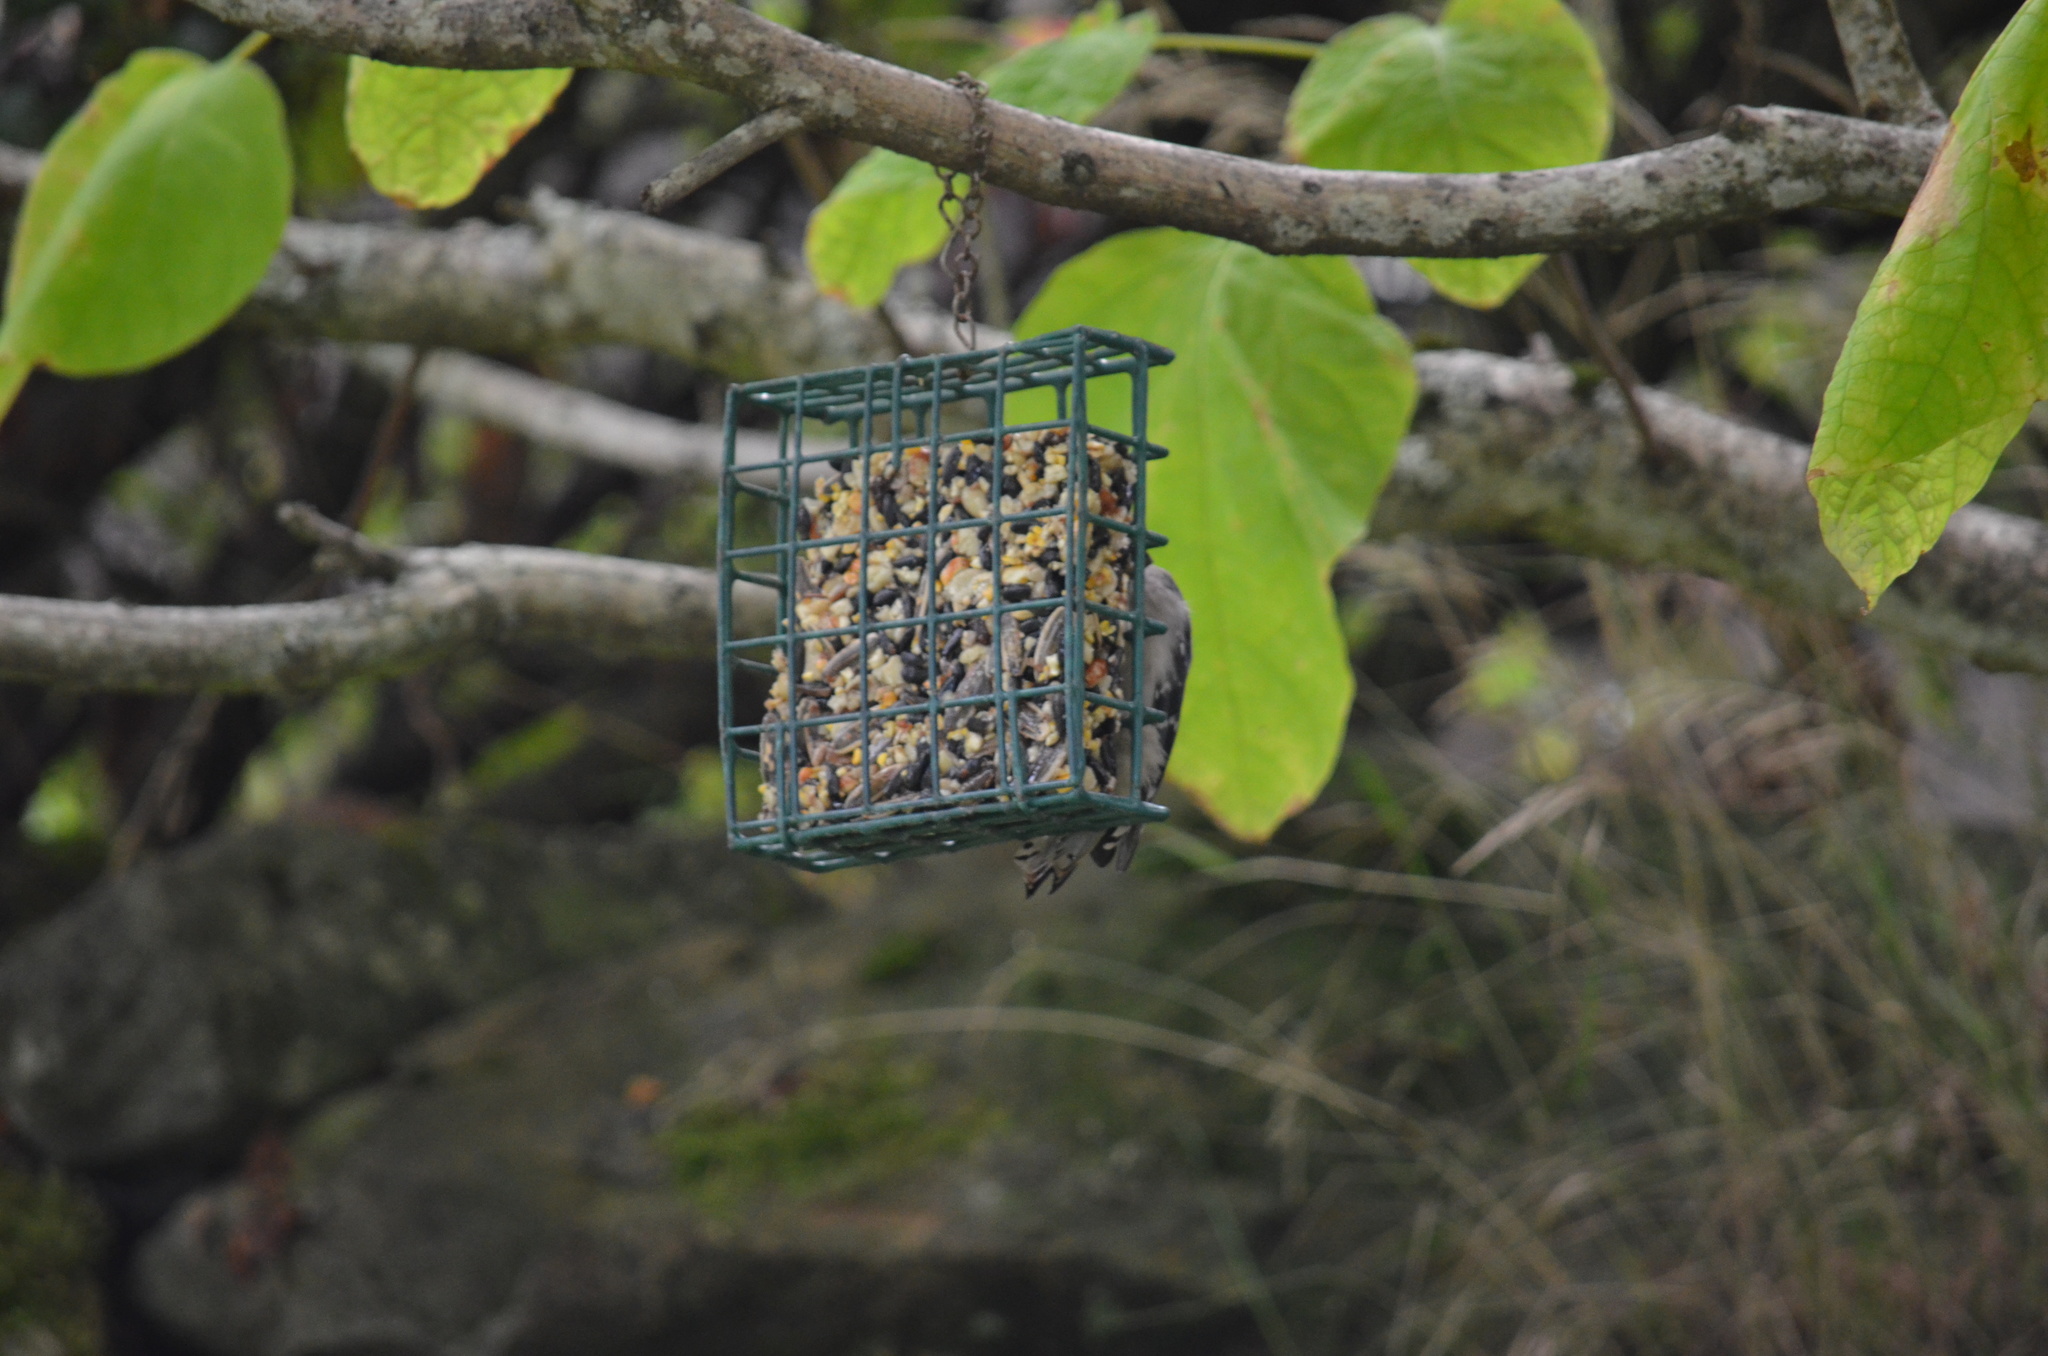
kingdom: Animalia
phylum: Chordata
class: Aves
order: Piciformes
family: Picidae
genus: Dryobates
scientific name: Dryobates pubescens
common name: Downy woodpecker
